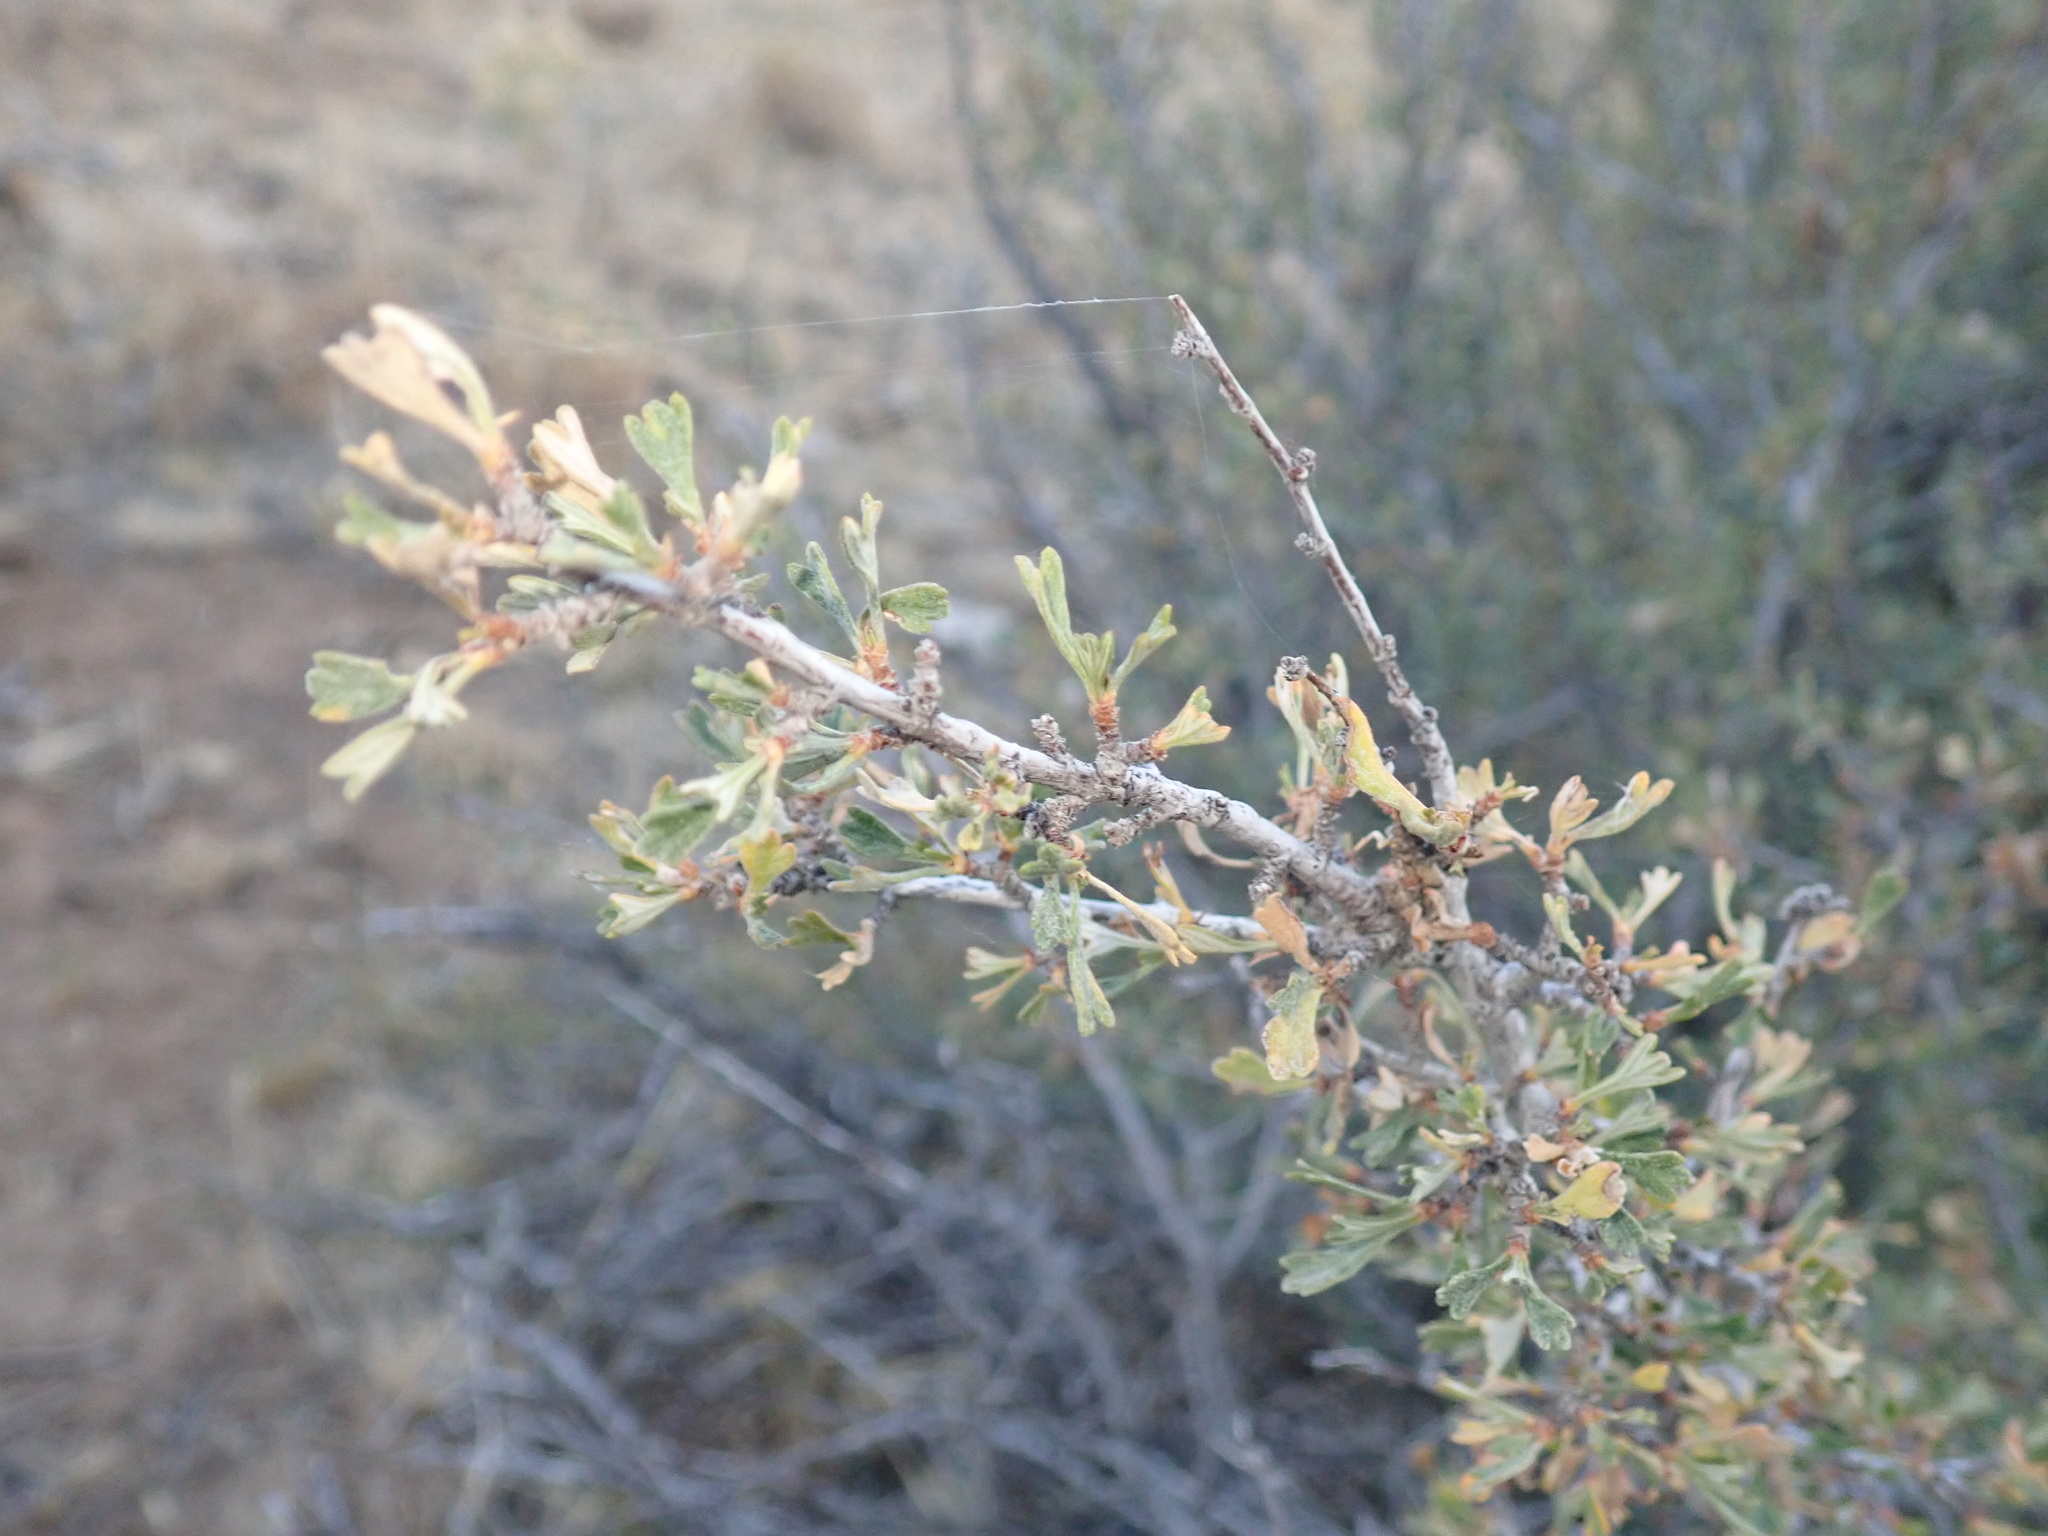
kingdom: Plantae
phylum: Tracheophyta
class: Magnoliopsida
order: Rosales
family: Rosaceae
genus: Purshia
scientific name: Purshia tridentata
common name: Antelope bitterbrush
